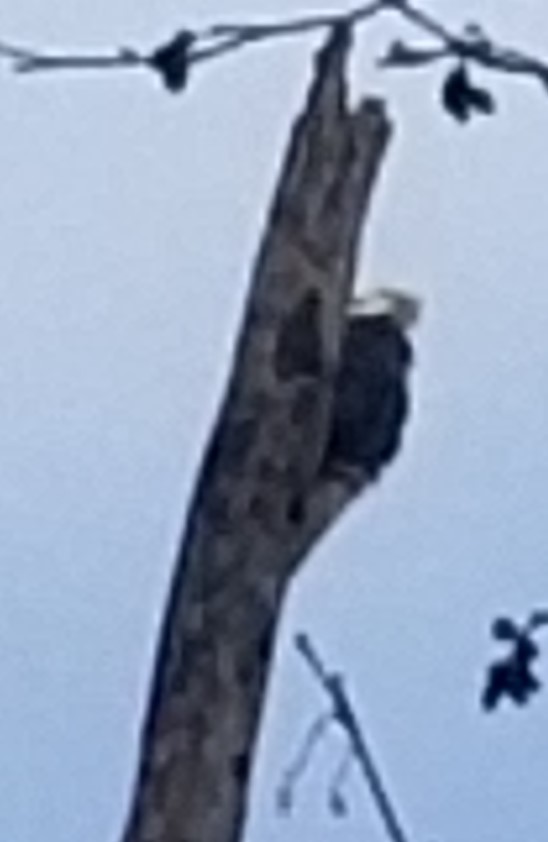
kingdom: Animalia
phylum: Chordata
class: Aves
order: Accipitriformes
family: Accipitridae
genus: Haliaeetus
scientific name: Haliaeetus leucocephalus
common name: Bald eagle
